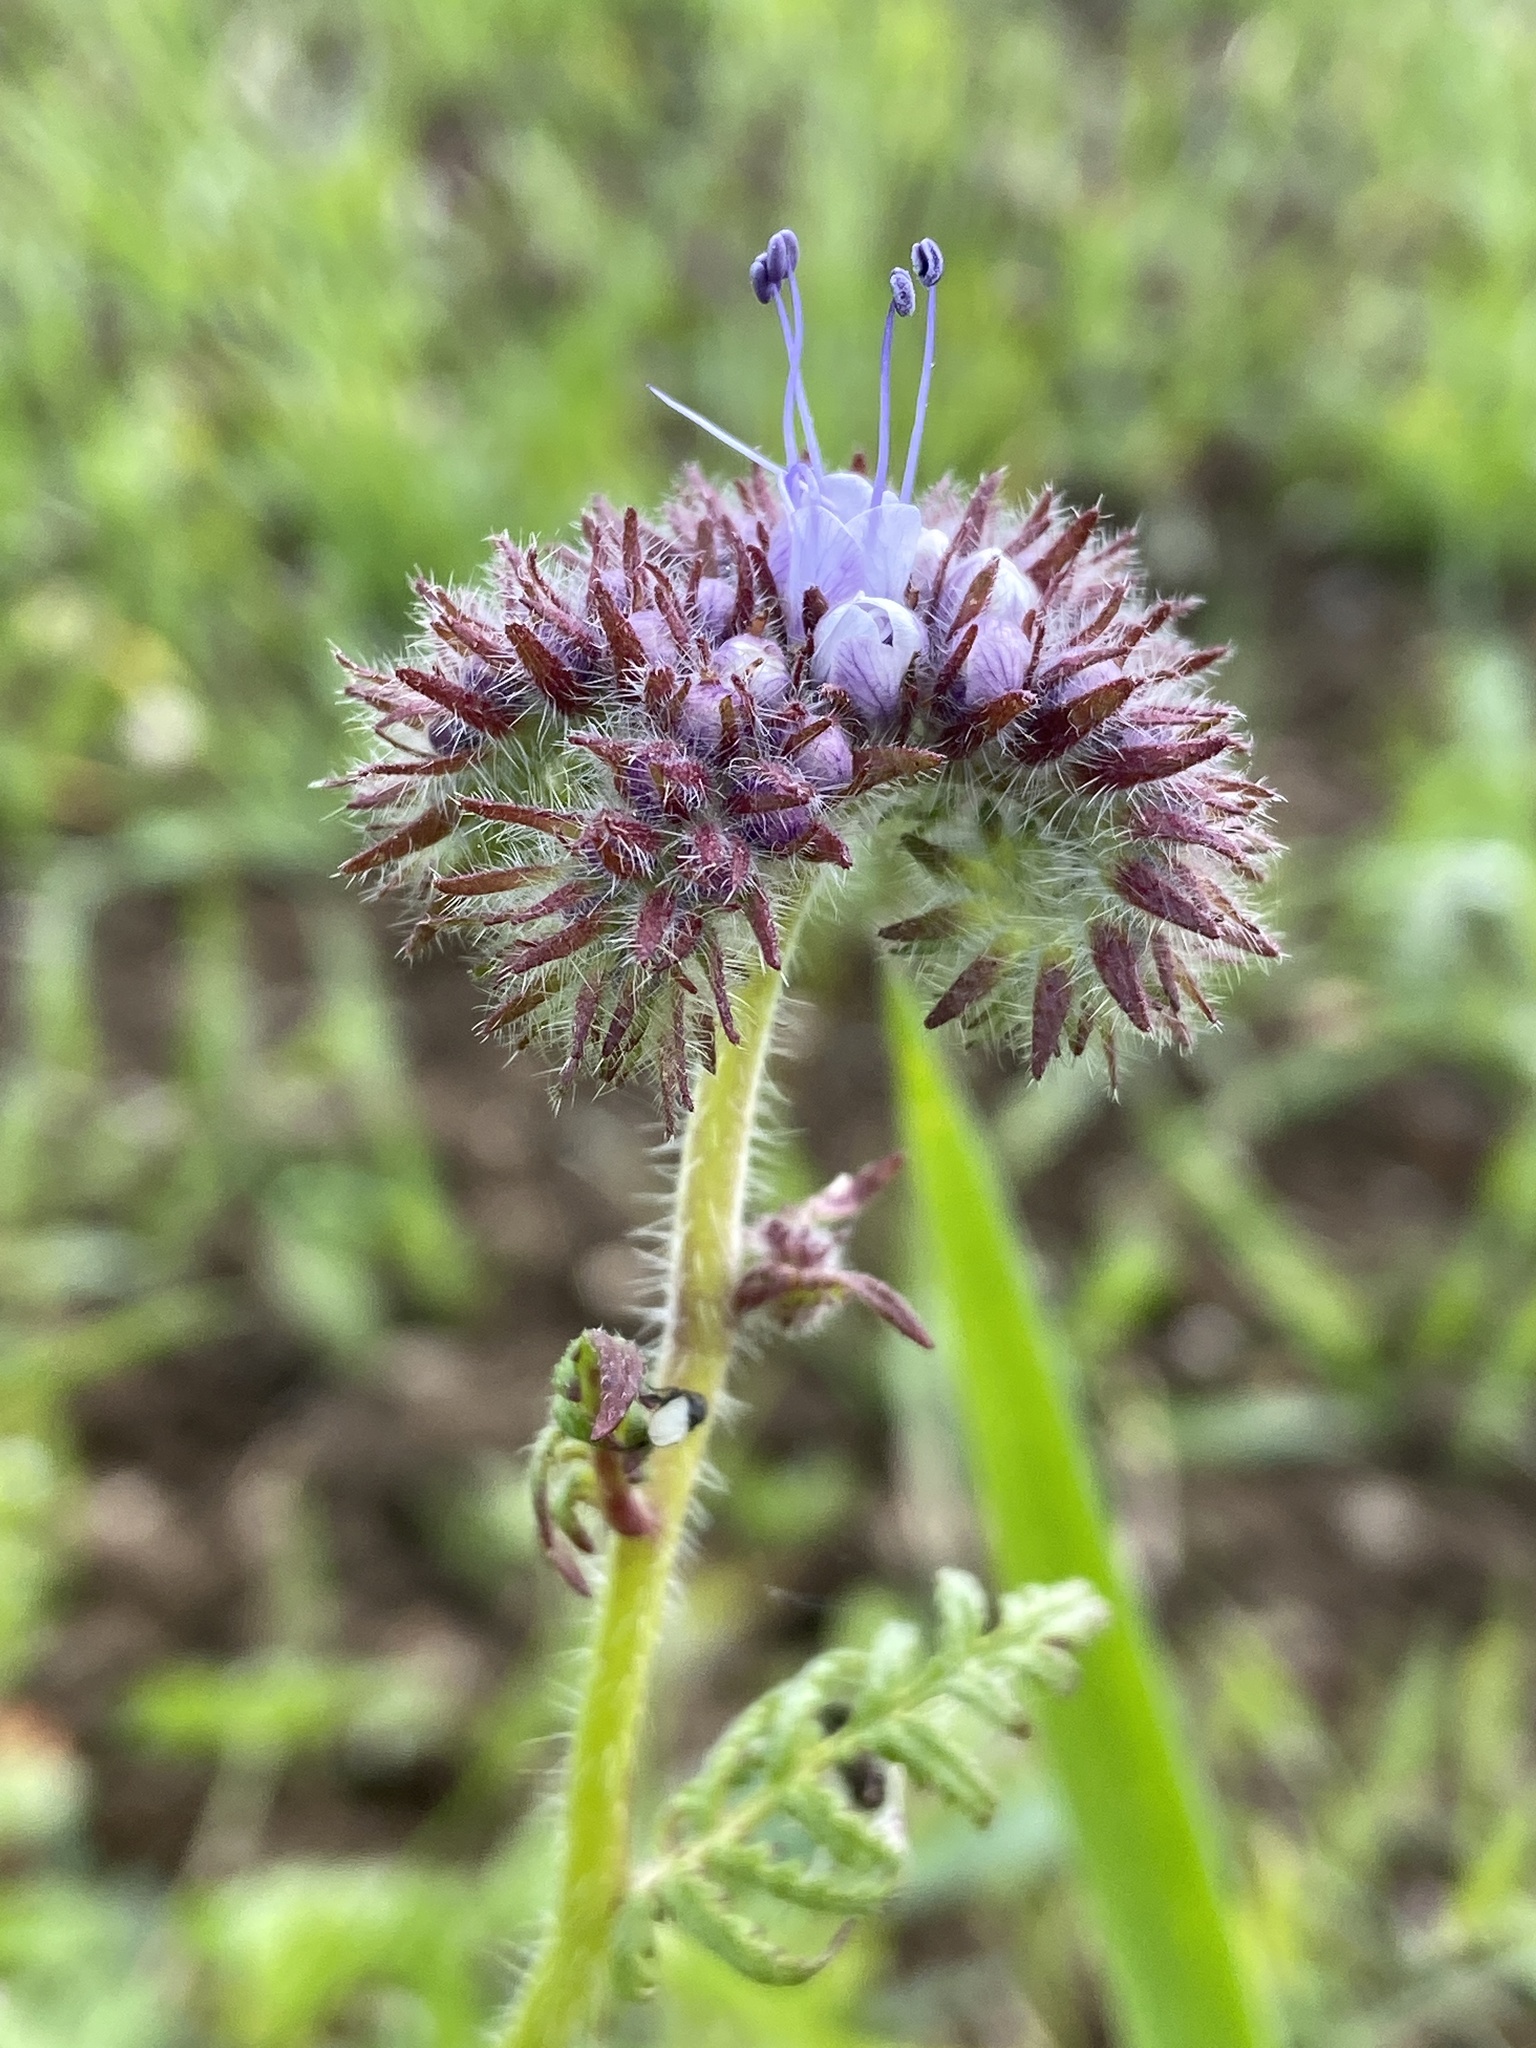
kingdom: Plantae
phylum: Tracheophyta
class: Magnoliopsida
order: Boraginales
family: Hydrophyllaceae
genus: Phacelia
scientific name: Phacelia tanacetifolia
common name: Phacelia
